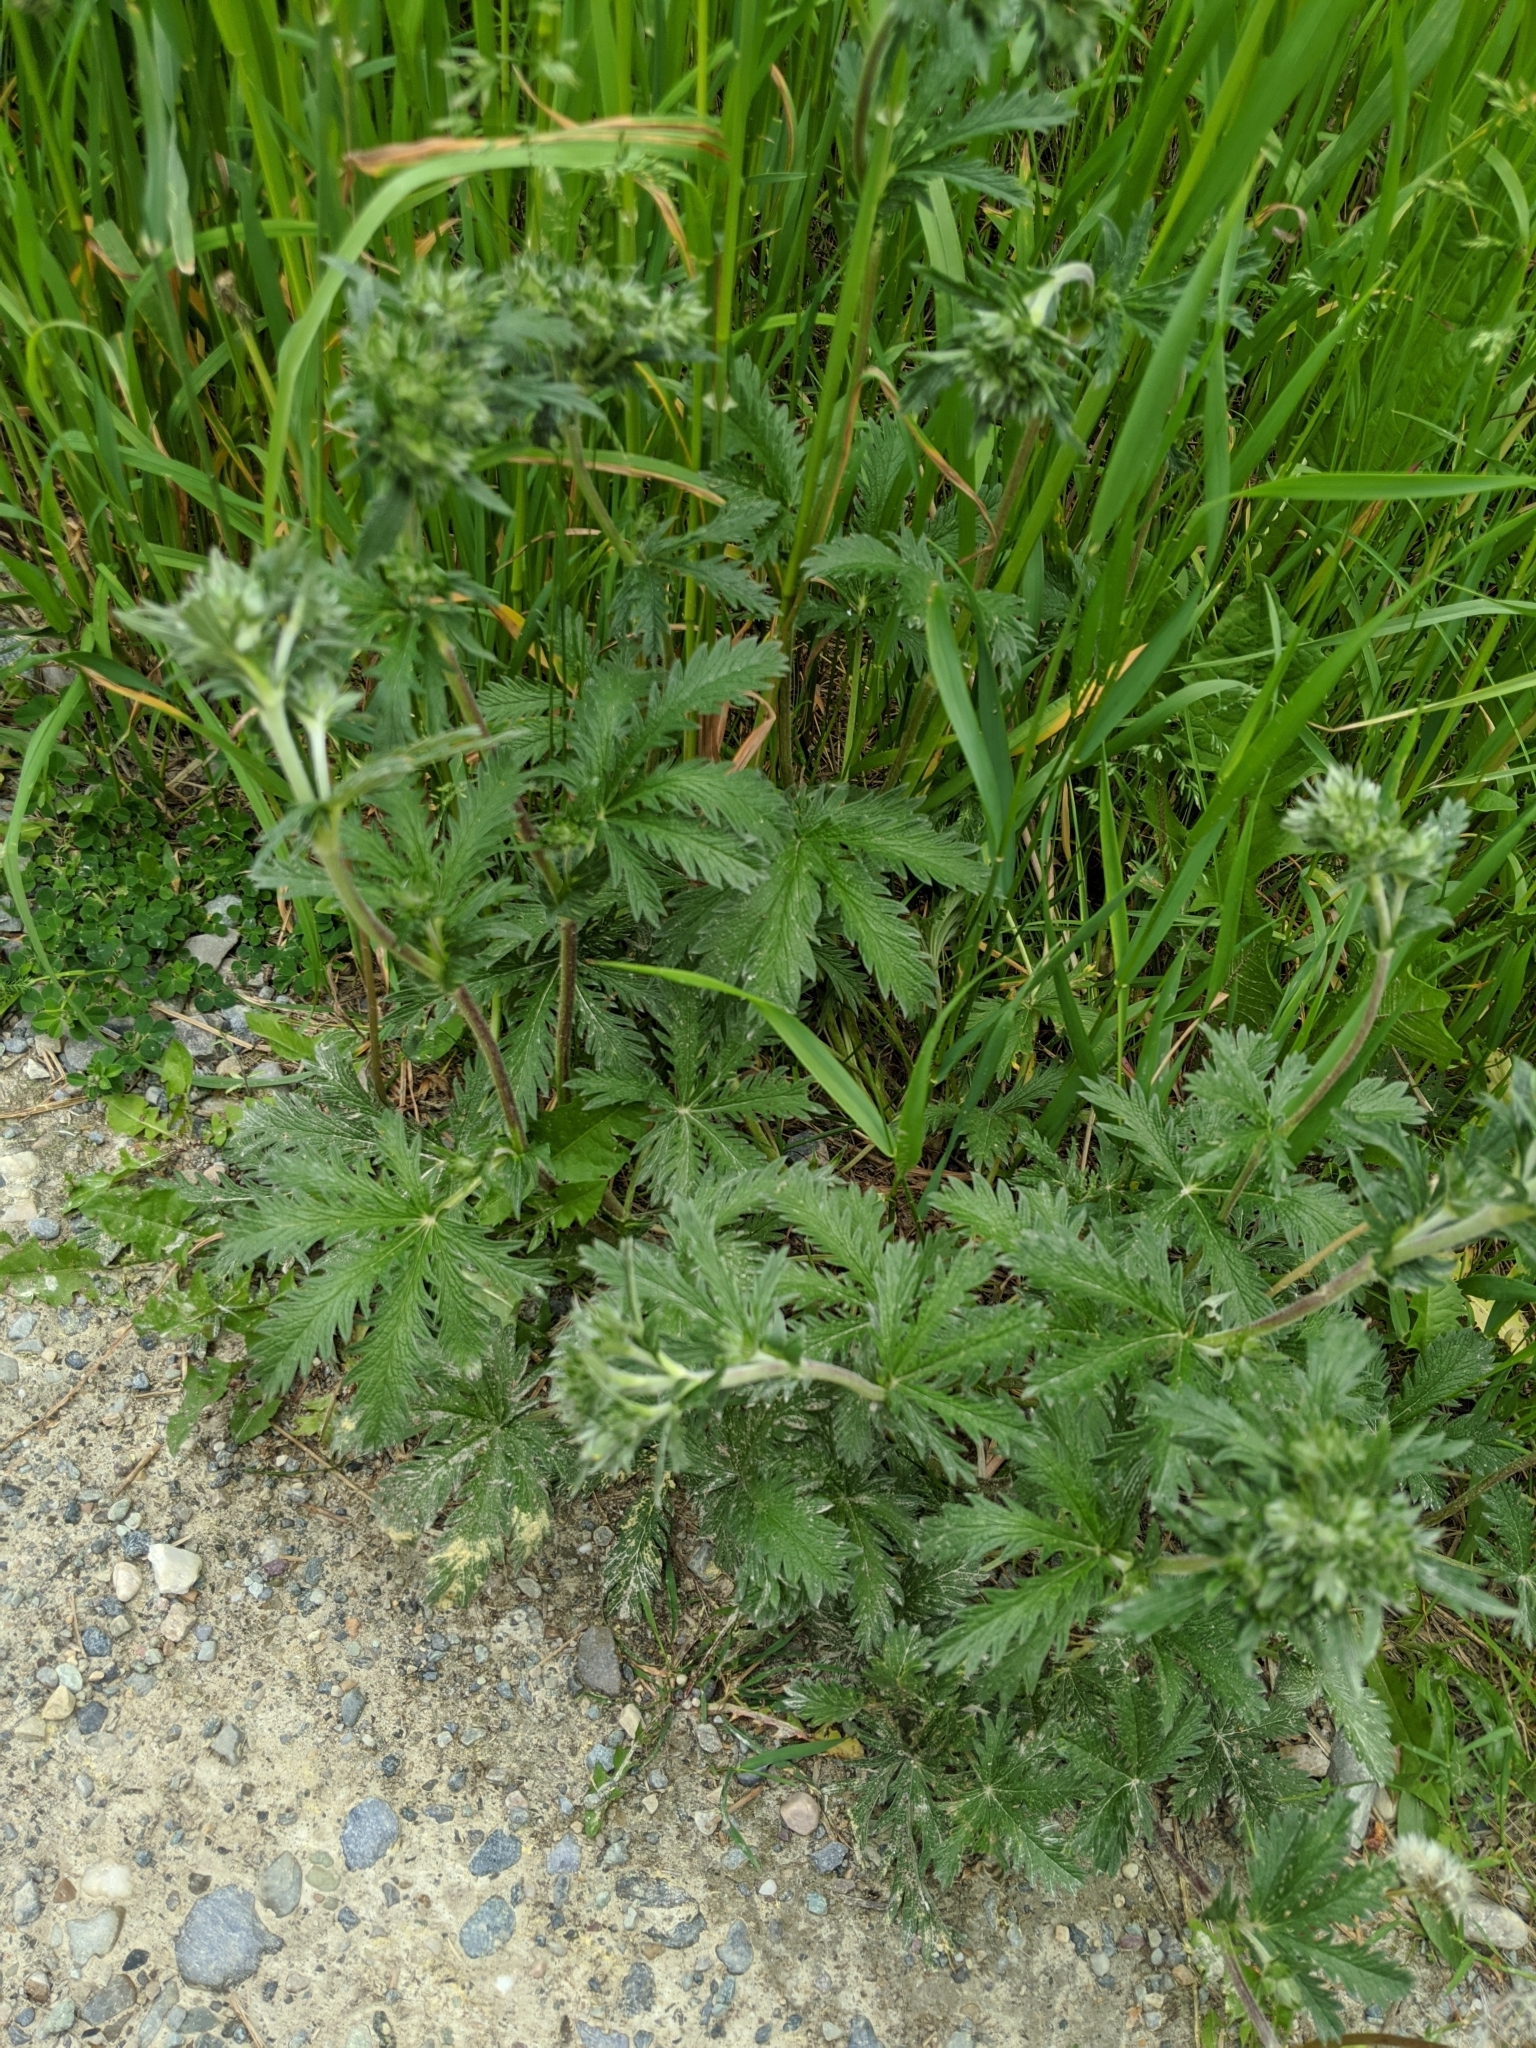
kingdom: Plantae
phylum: Tracheophyta
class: Magnoliopsida
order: Rosales
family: Rosaceae
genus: Potentilla
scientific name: Potentilla recta
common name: Sulphur cinquefoil
